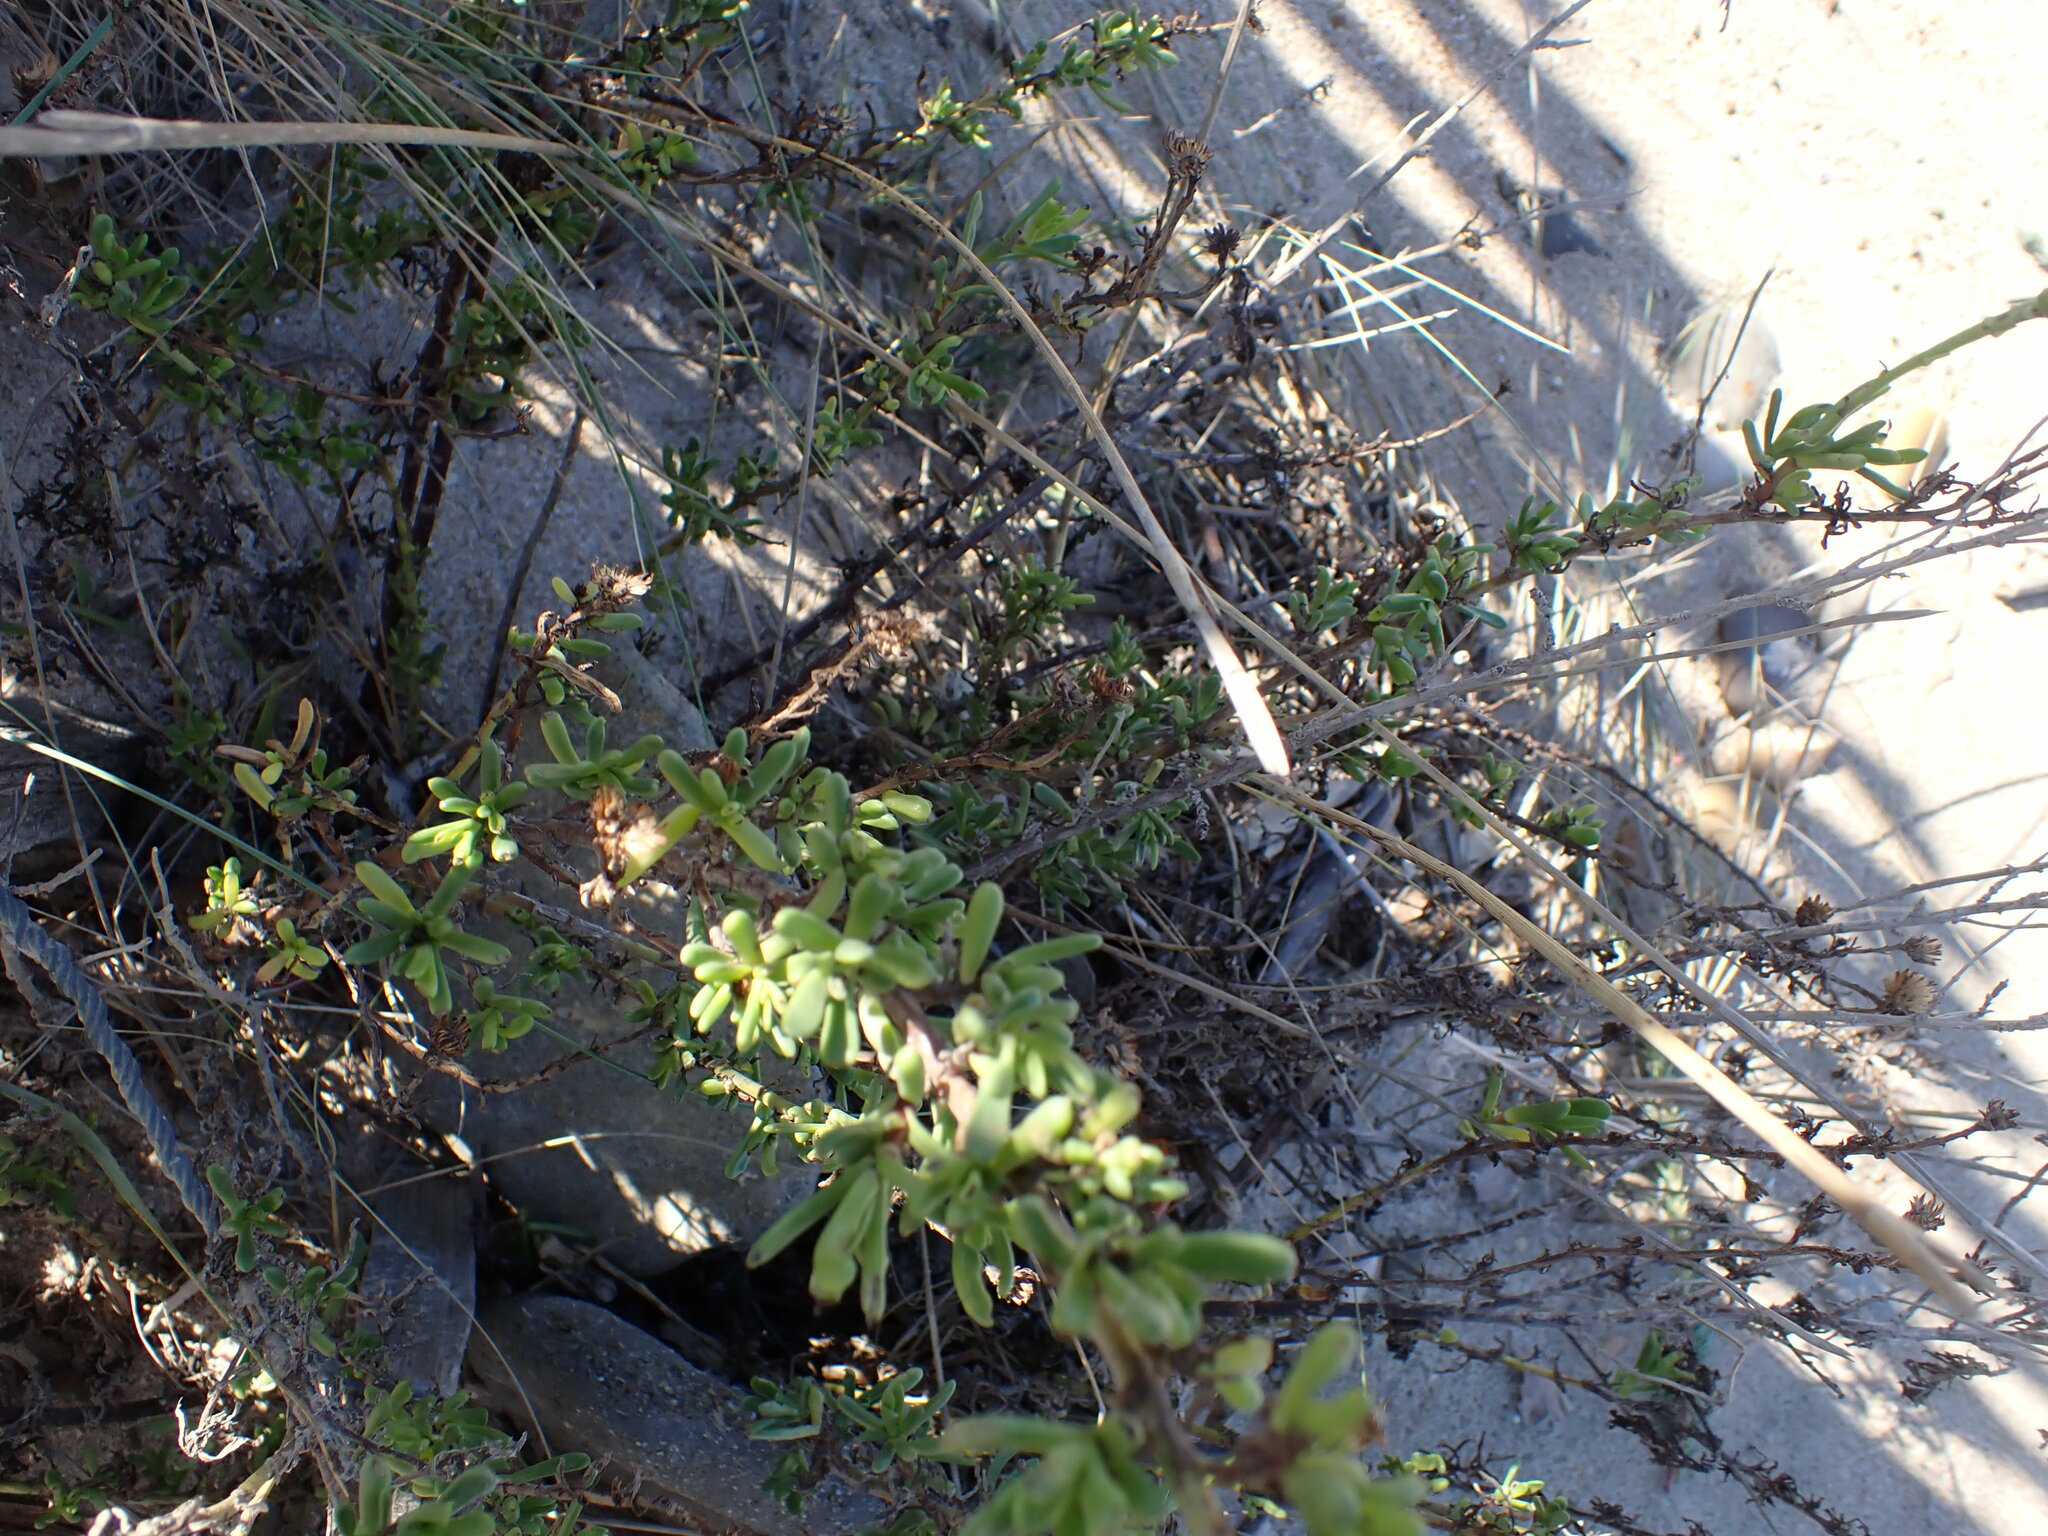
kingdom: Plantae
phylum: Tracheophyta
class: Magnoliopsida
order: Asterales
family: Asteraceae
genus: Limbarda
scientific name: Limbarda crithmoides
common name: Golden samphire
